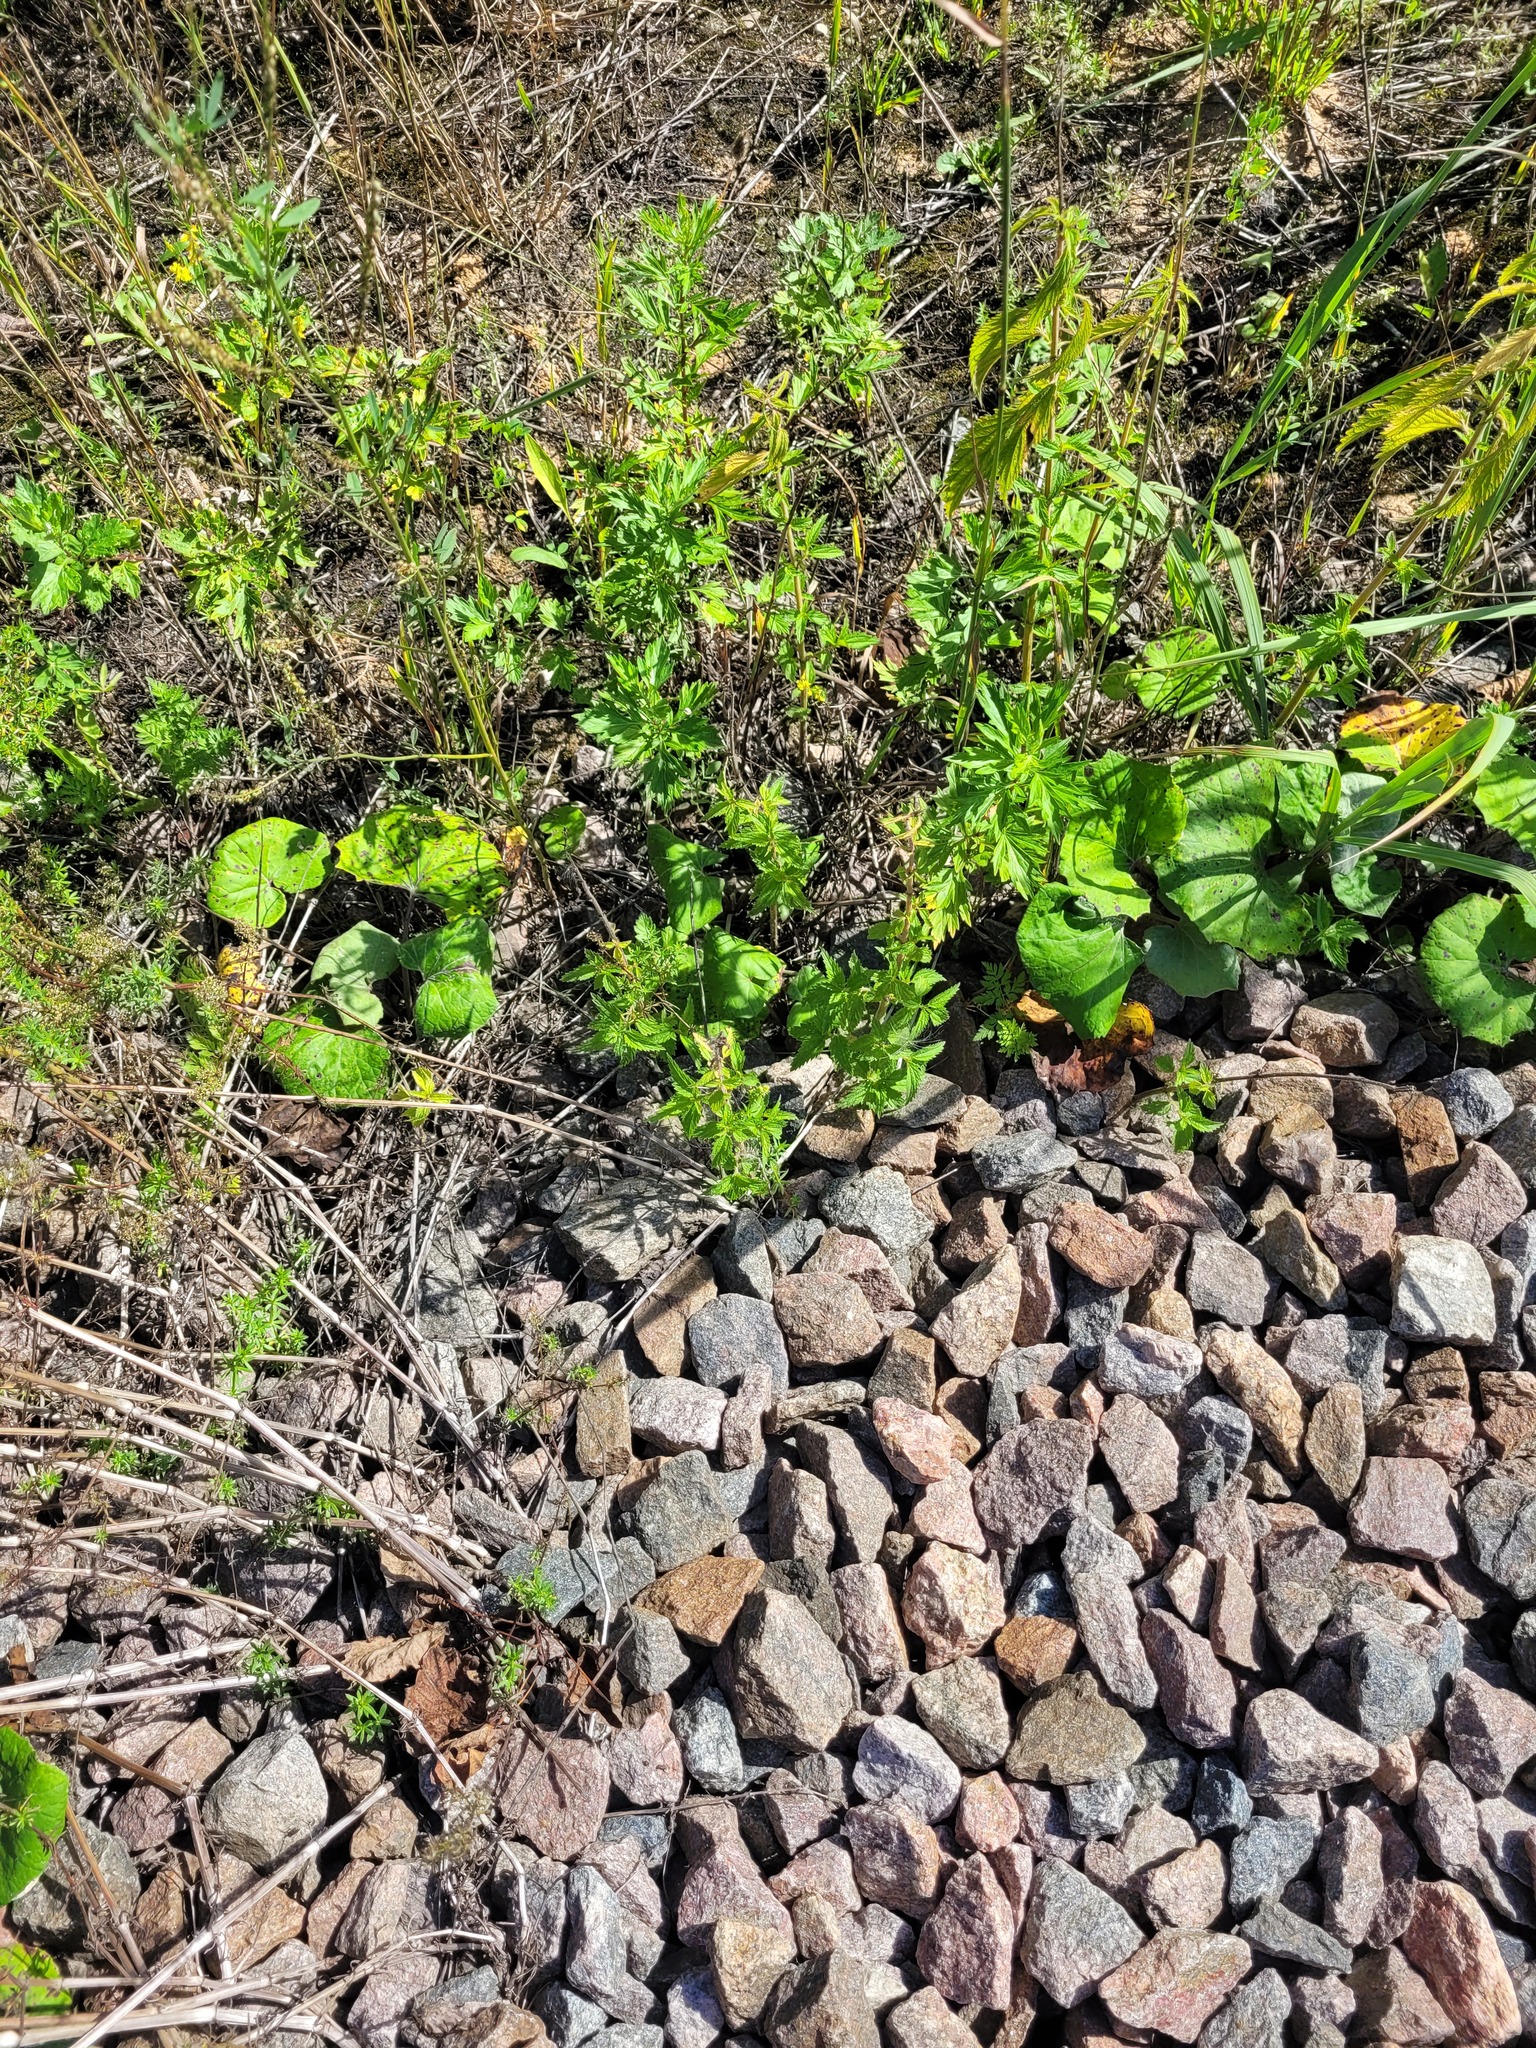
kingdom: Plantae
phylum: Tracheophyta
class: Magnoliopsida
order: Rosales
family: Urticaceae
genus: Urtica
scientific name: Urtica dioica
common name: Common nettle
